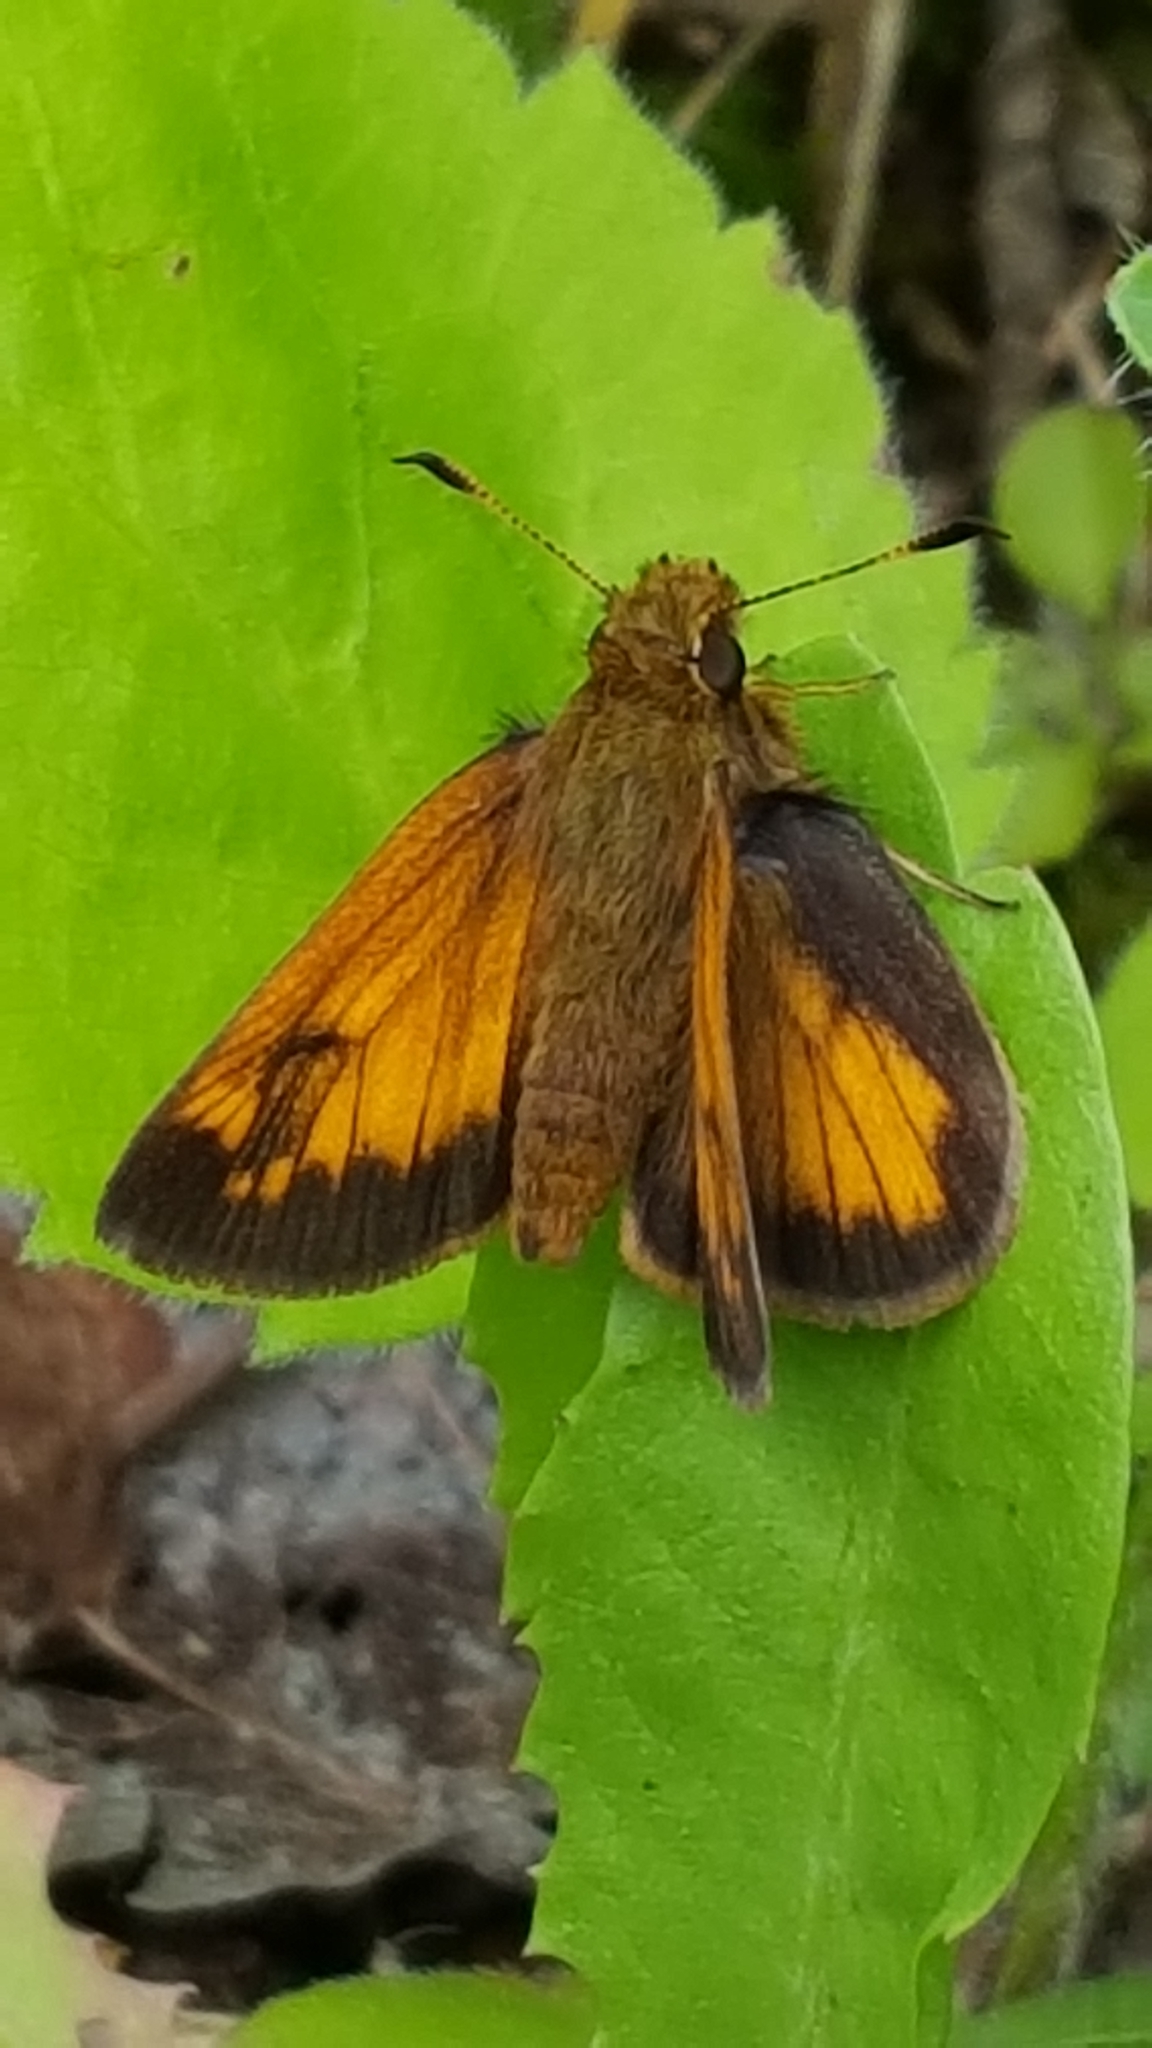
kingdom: Animalia
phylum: Arthropoda
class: Insecta
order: Lepidoptera
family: Hesperiidae
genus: Lon
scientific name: Lon hobomok
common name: Hobomok skipper
